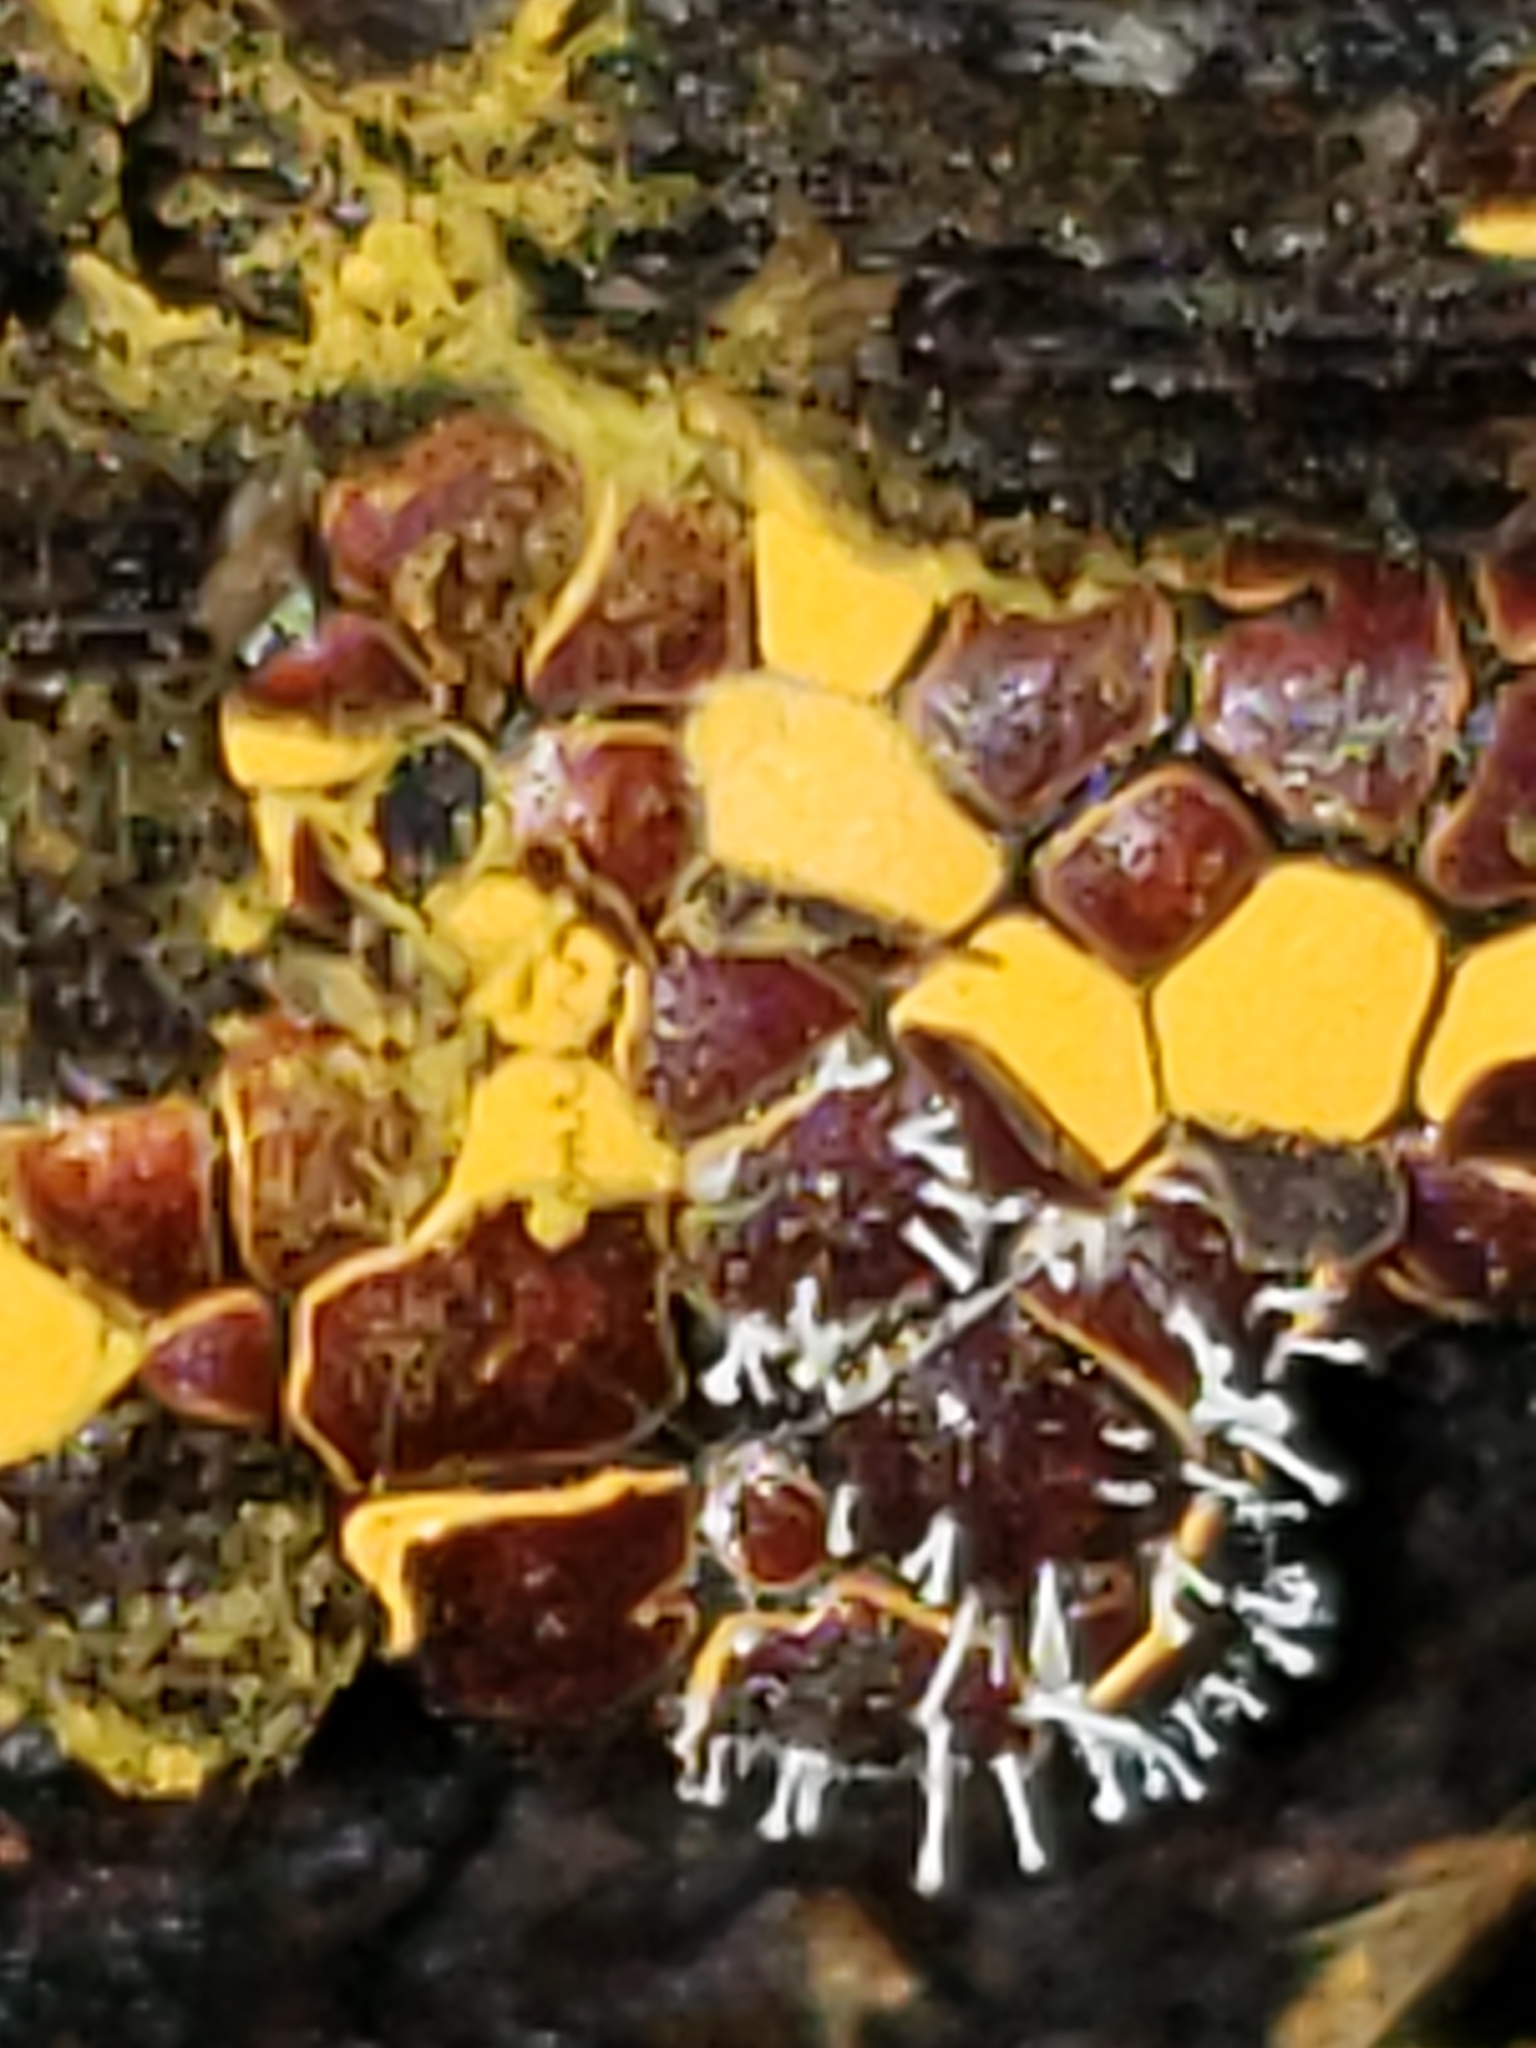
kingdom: Protozoa
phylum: Mycetozoa
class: Myxomycetes
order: Trichiales
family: Trichiaceae
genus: Perichaena
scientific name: Perichaena depressa
